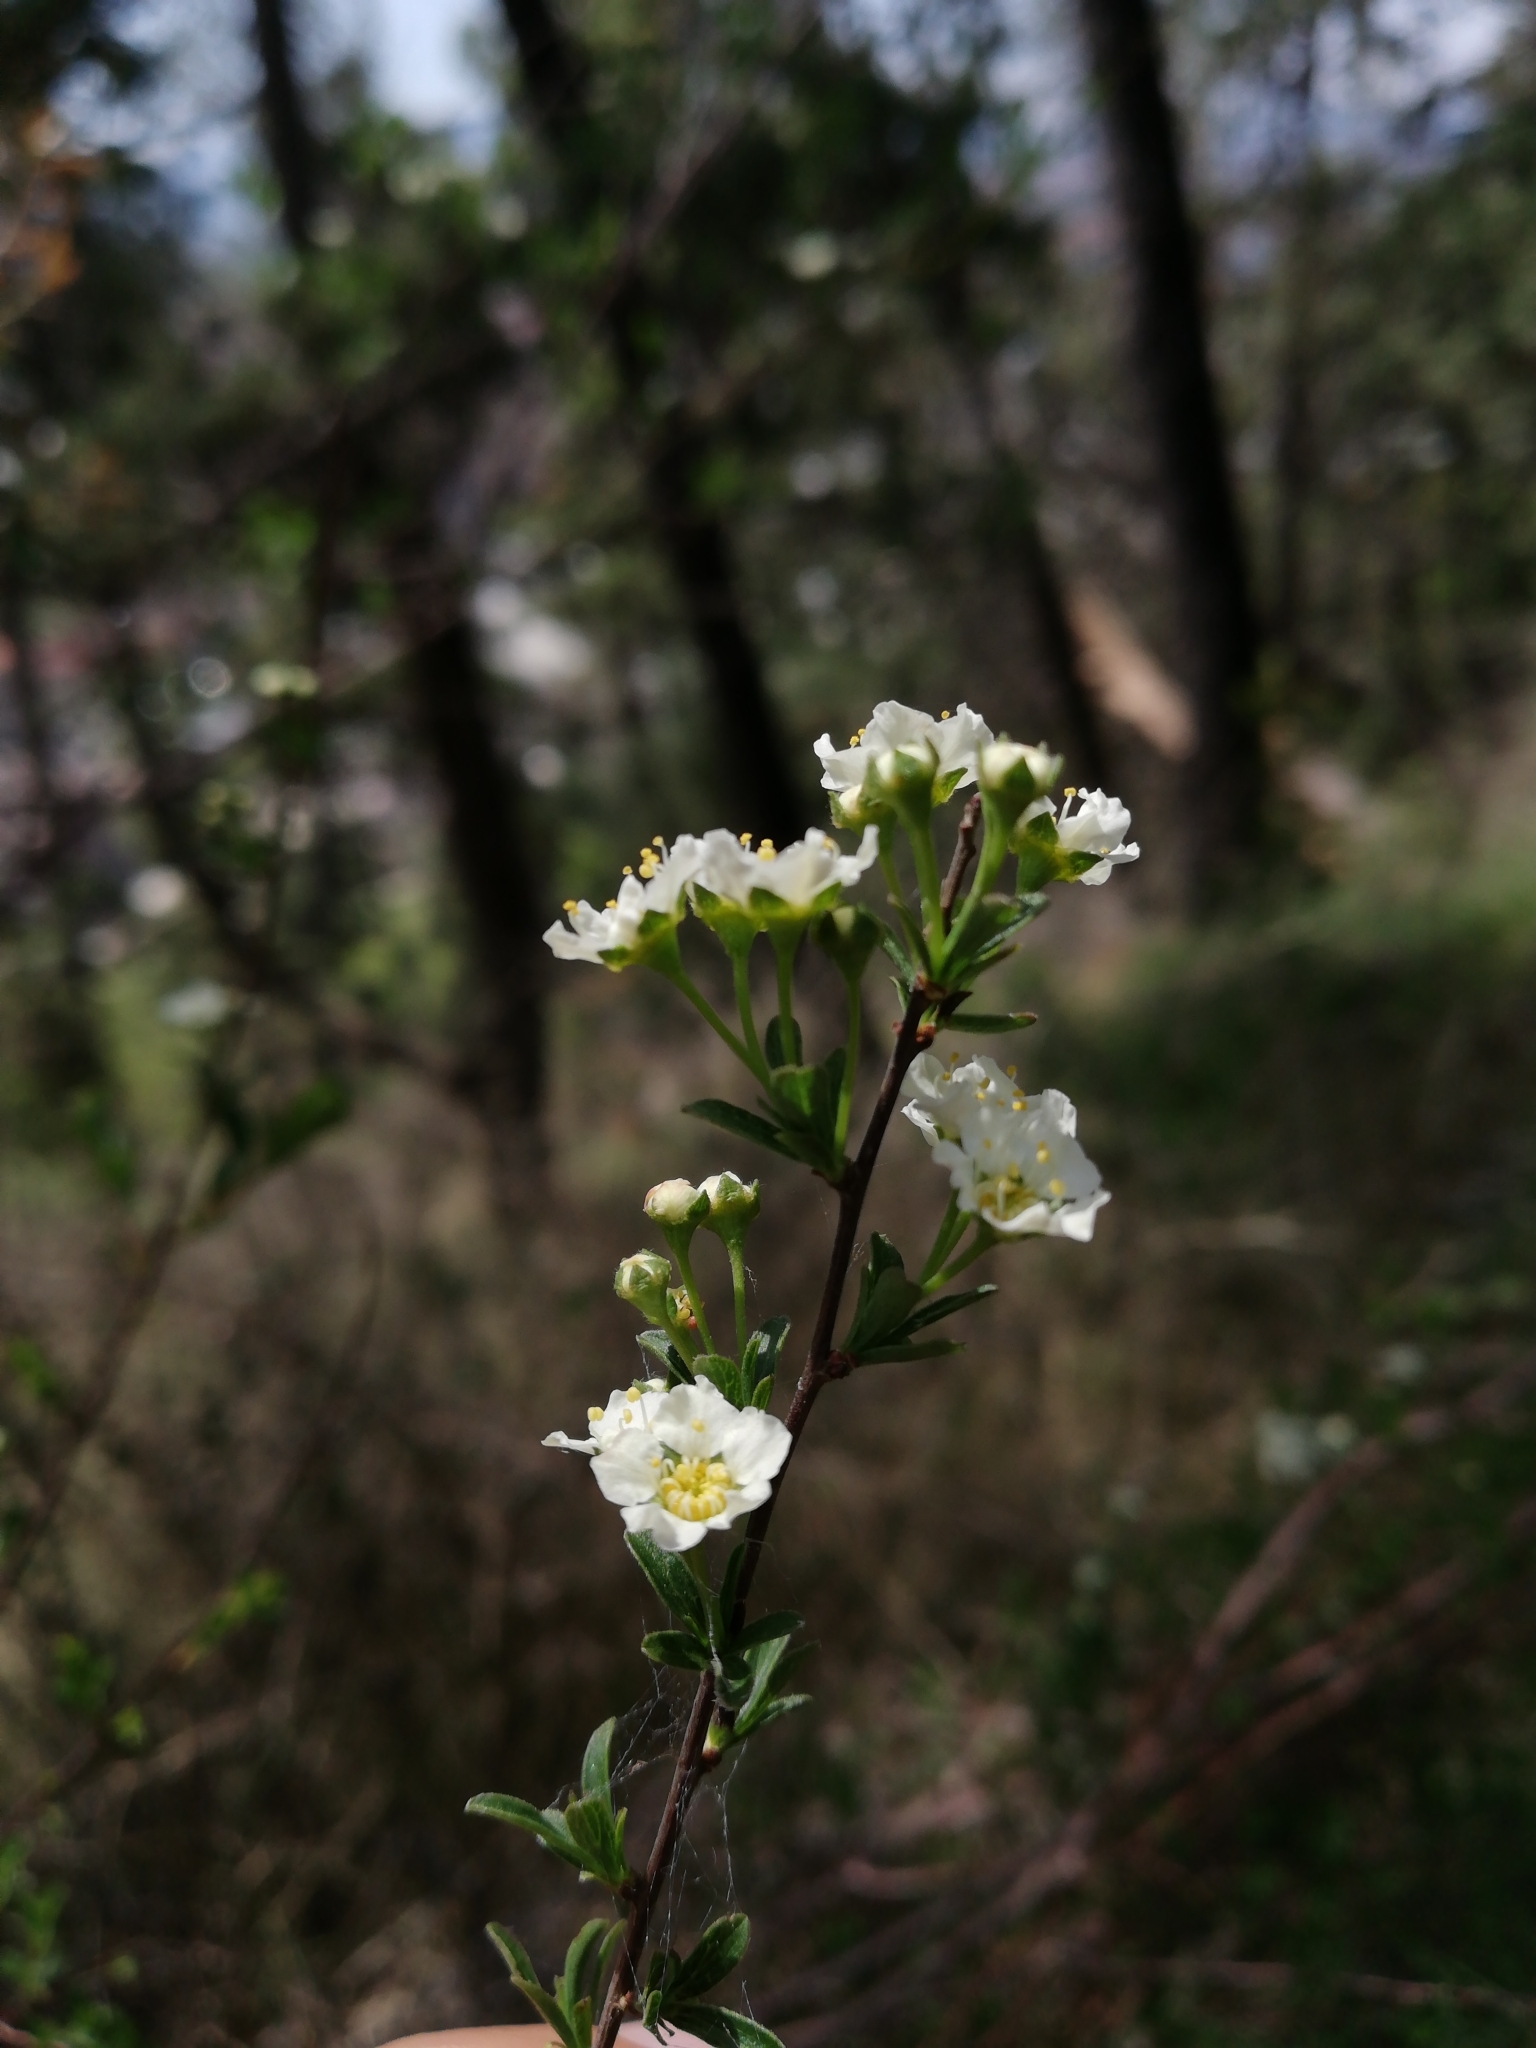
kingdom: Plantae
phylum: Tracheophyta
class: Magnoliopsida
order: Rosales
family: Rosaceae
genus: Spiraea
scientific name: Spiraea hypericifolia
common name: Iberian spirea
